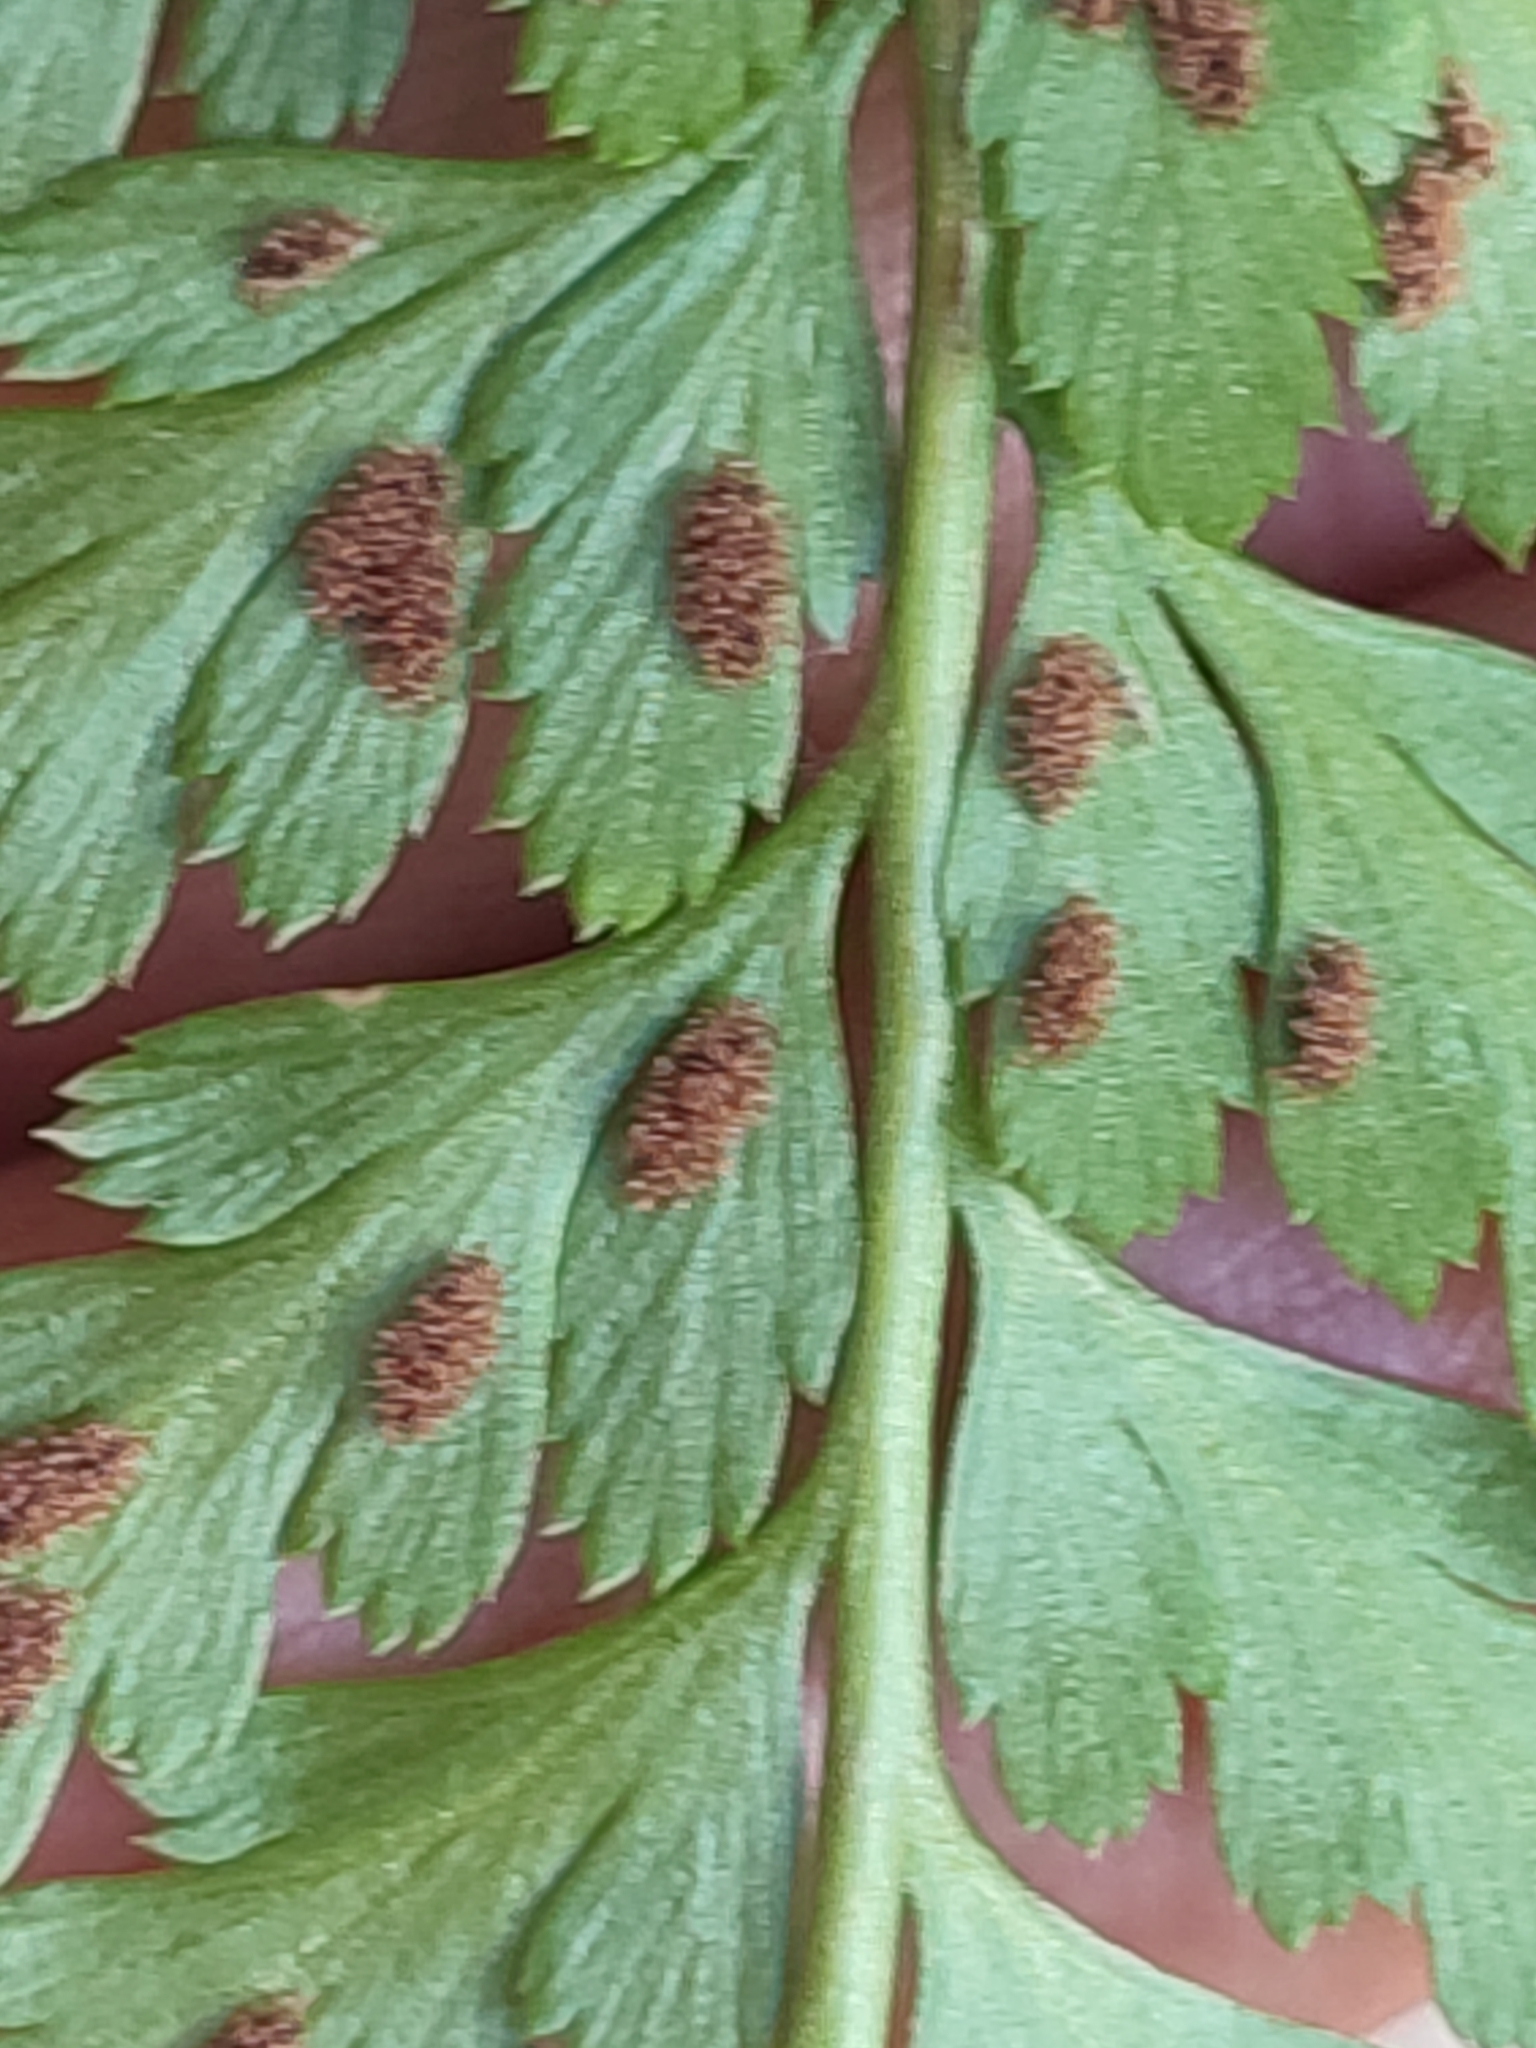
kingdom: Plantae
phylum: Tracheophyta
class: Polypodiopsida
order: Polypodiales
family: Aspleniaceae
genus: Asplenium
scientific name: Asplenium adiantum-nigrum
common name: Black spleenwort
